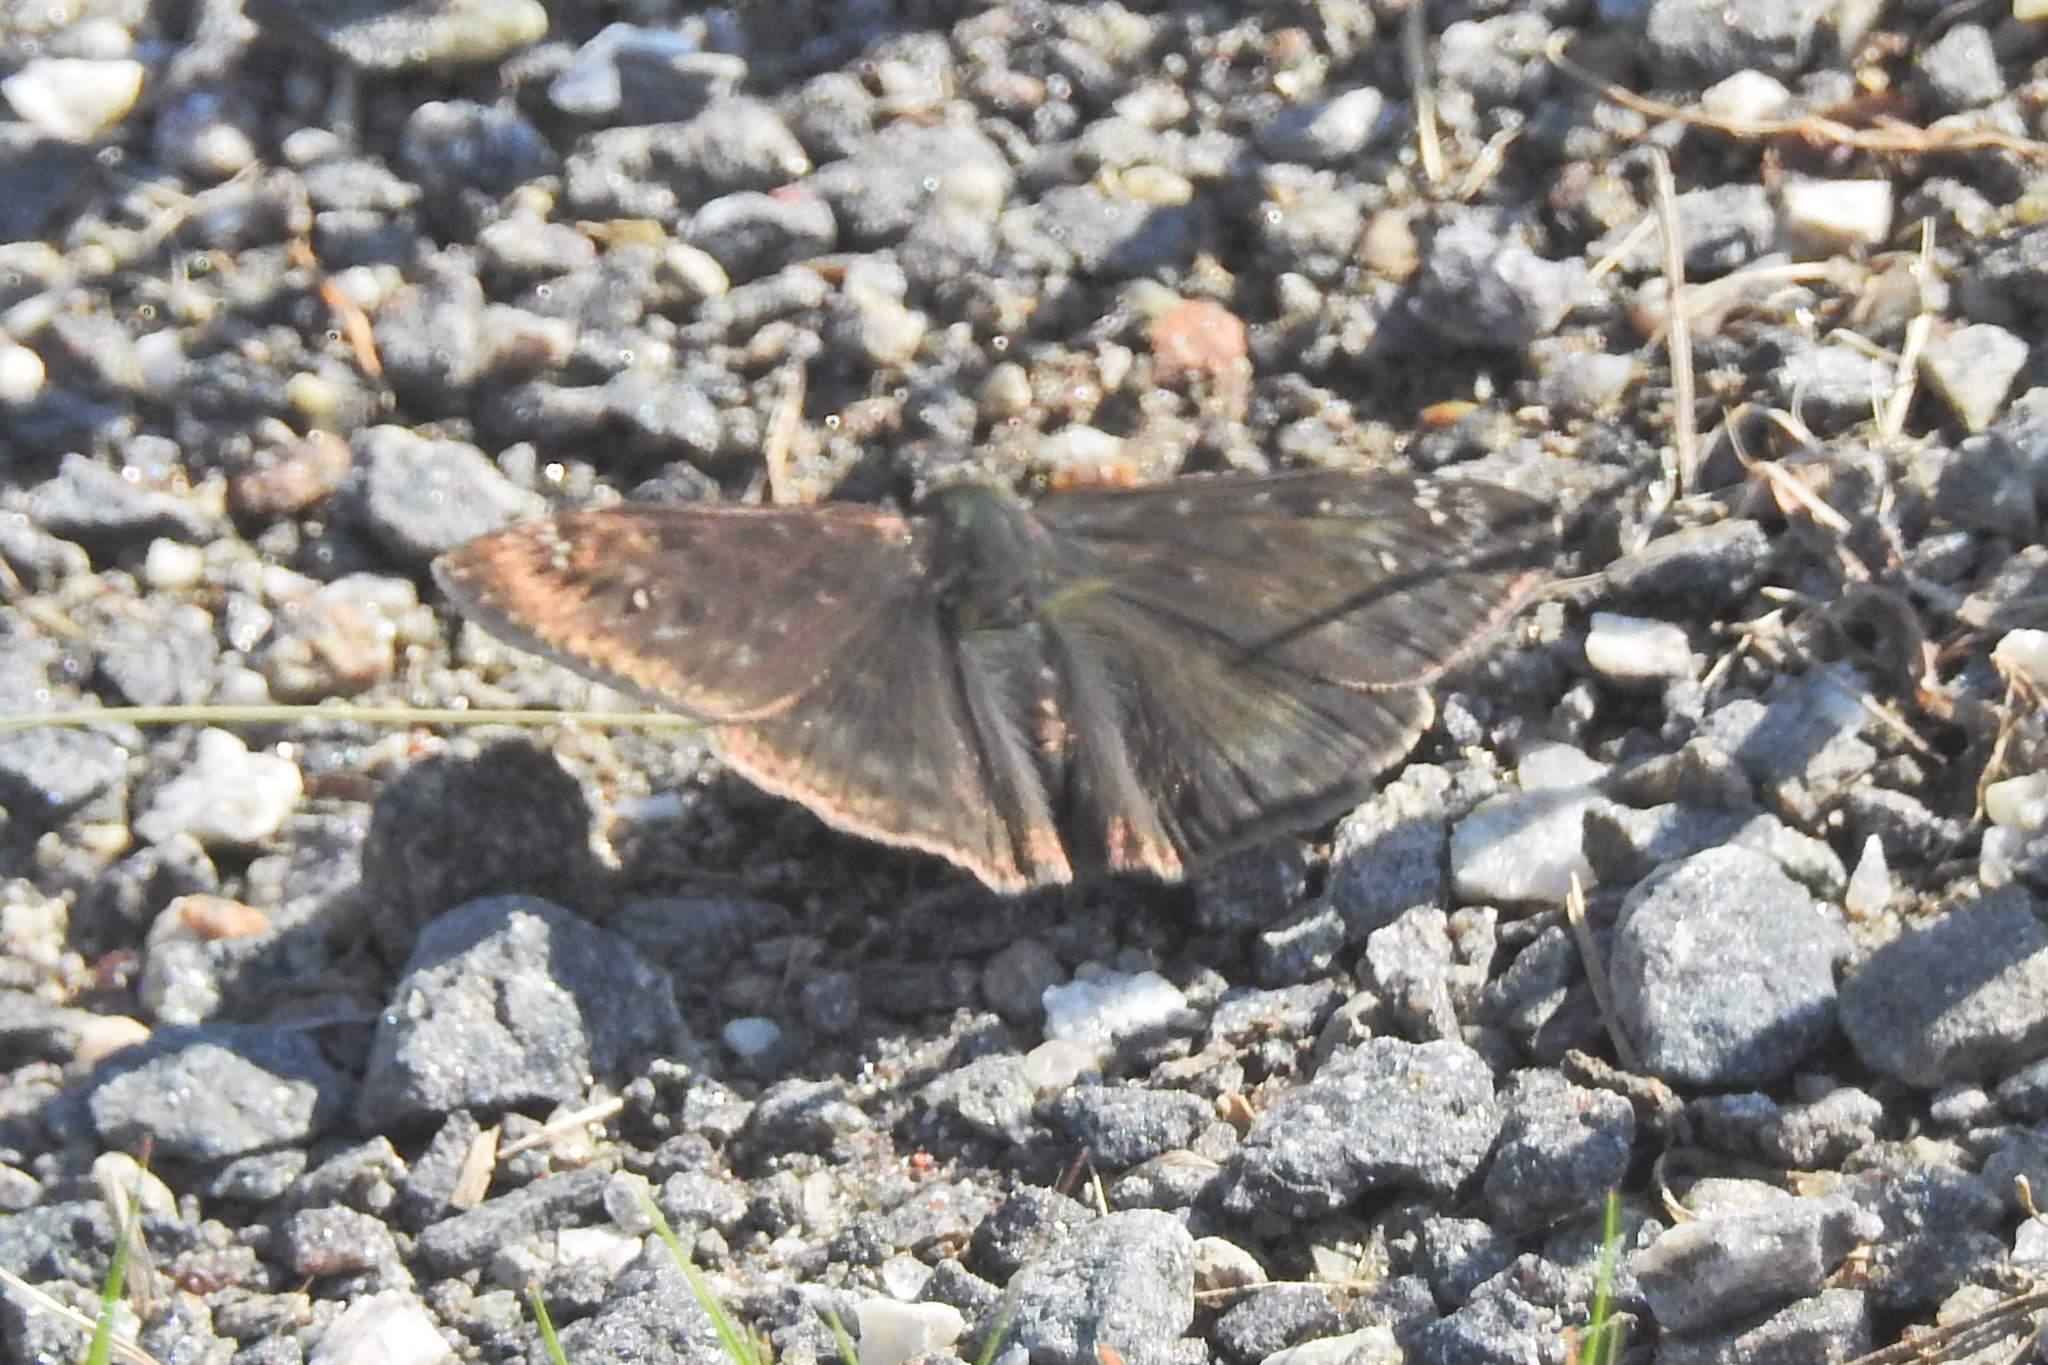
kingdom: Animalia
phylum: Arthropoda
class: Insecta
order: Lepidoptera
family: Hesperiidae
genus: Erynnis
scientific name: Erynnis horatius
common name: Horace's duskywing
